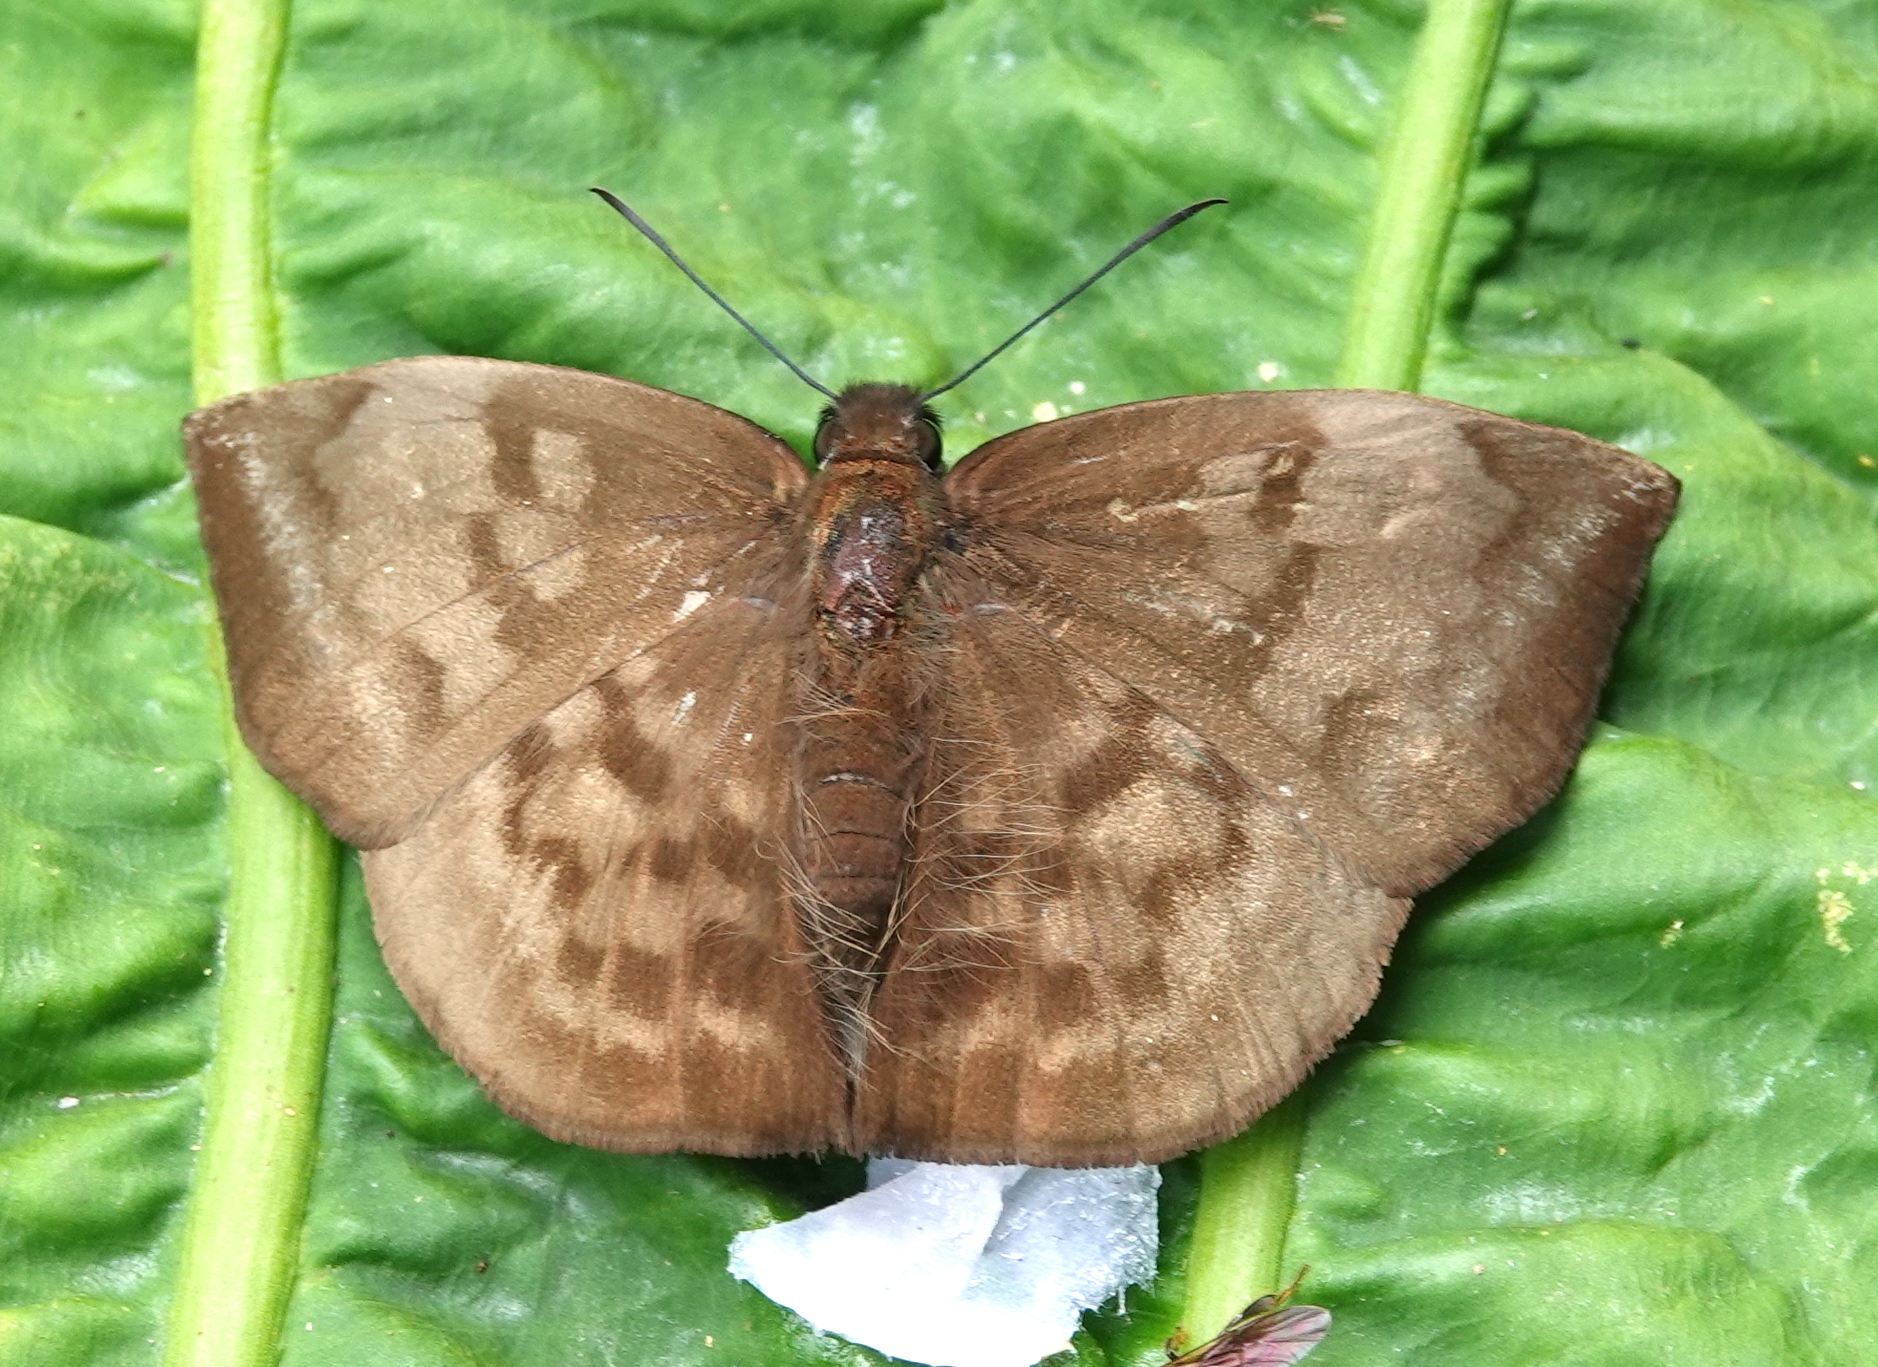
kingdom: Animalia
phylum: Arthropoda
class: Insecta
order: Lepidoptera
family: Hesperiidae
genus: Achlyodes
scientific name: Achlyodes pallida
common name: Pale sicklewing
